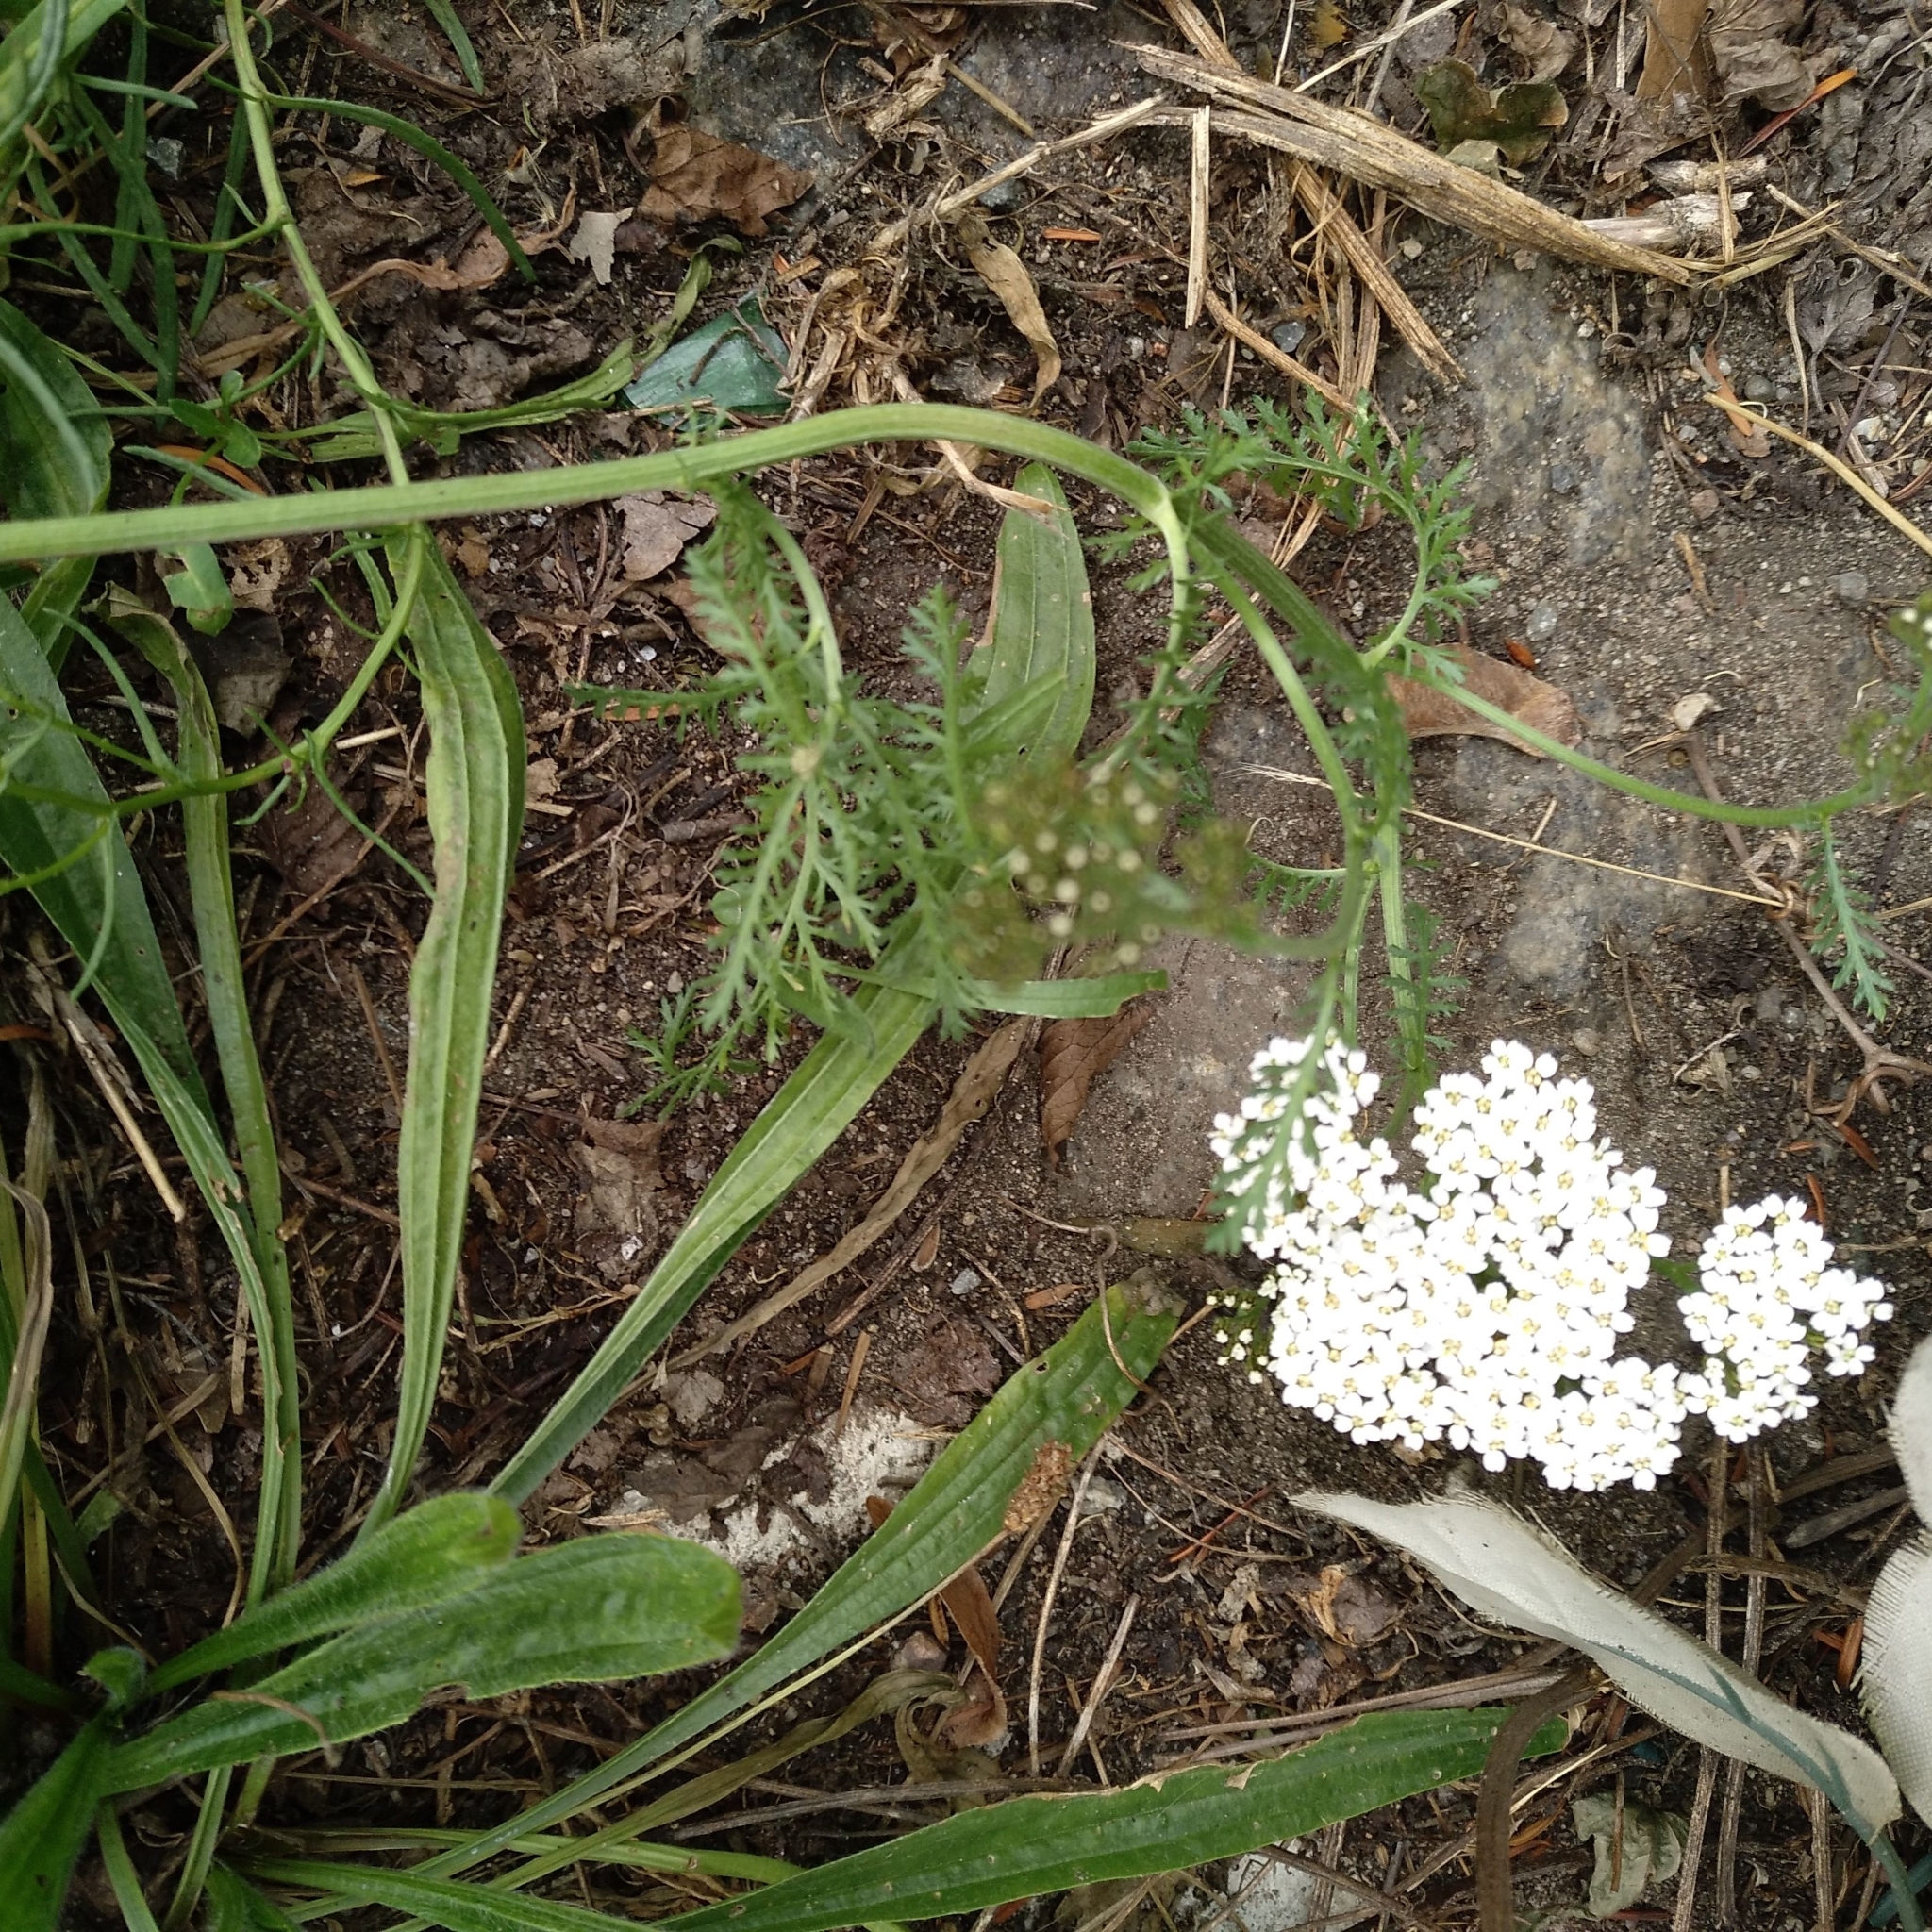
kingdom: Plantae
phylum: Tracheophyta
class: Magnoliopsida
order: Asterales
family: Asteraceae
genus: Achillea
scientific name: Achillea millefolium
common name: Yarrow
